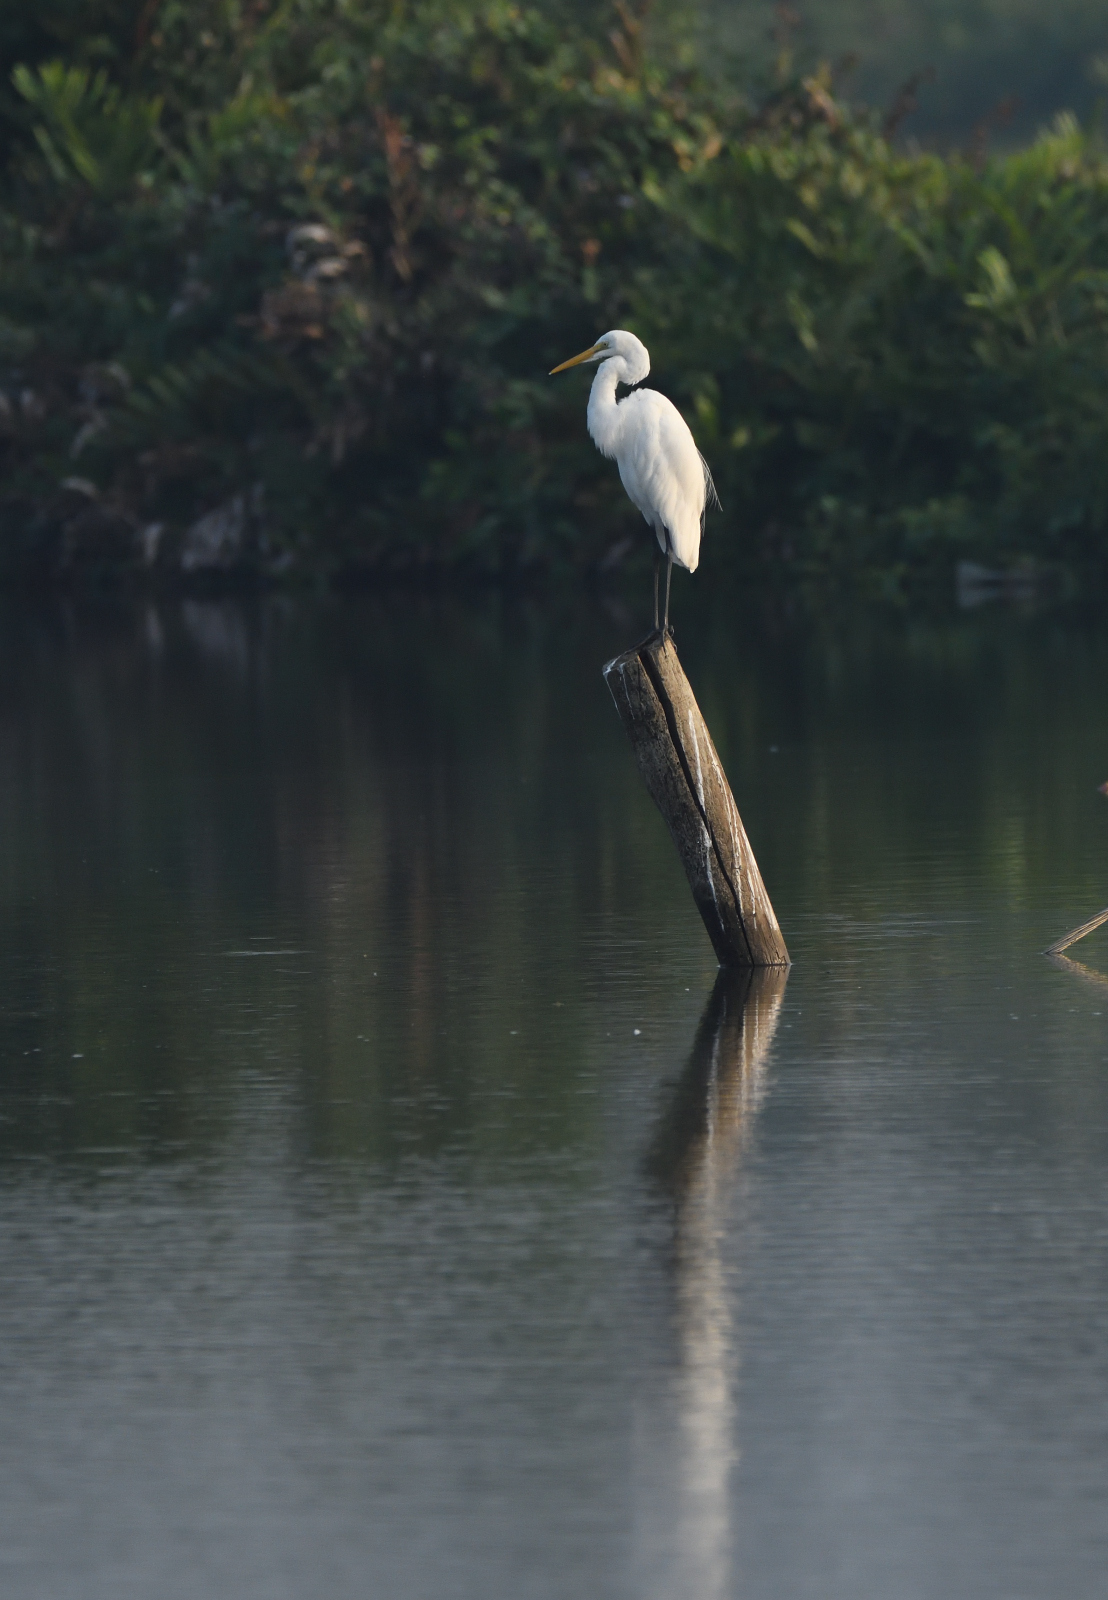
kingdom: Animalia
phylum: Chordata
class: Aves
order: Pelecaniformes
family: Ardeidae
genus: Ardea
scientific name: Ardea alba
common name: Great egret
